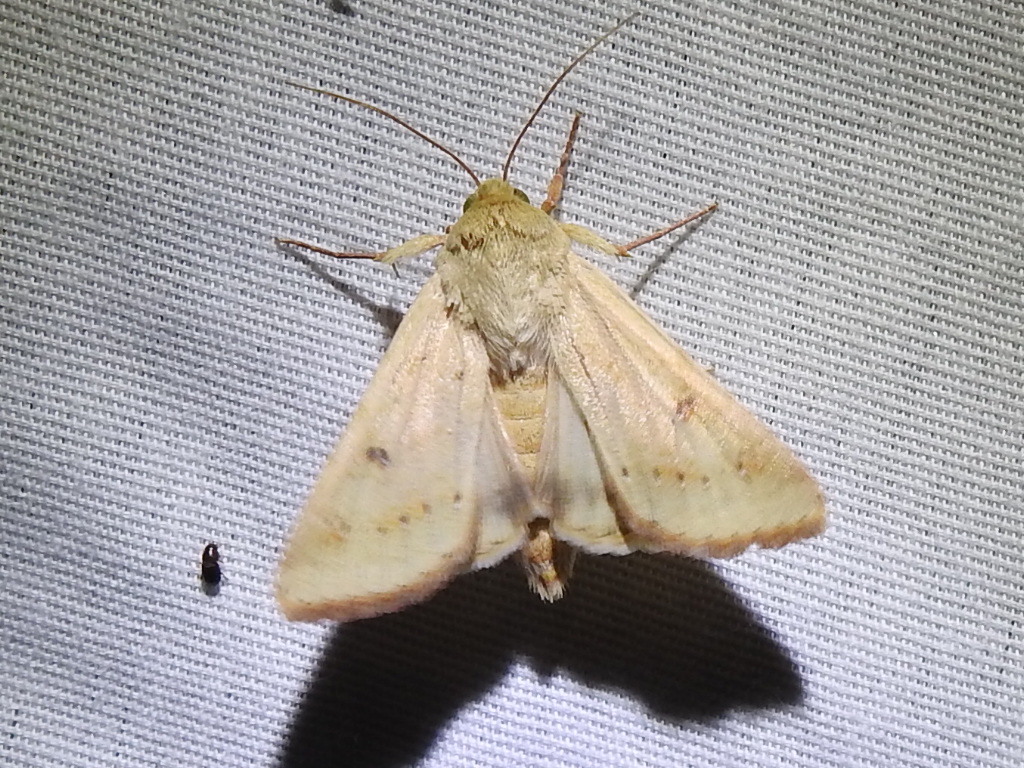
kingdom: Animalia
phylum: Arthropoda
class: Insecta
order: Lepidoptera
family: Noctuidae
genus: Helicoverpa
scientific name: Helicoverpa zea
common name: Bollworm
